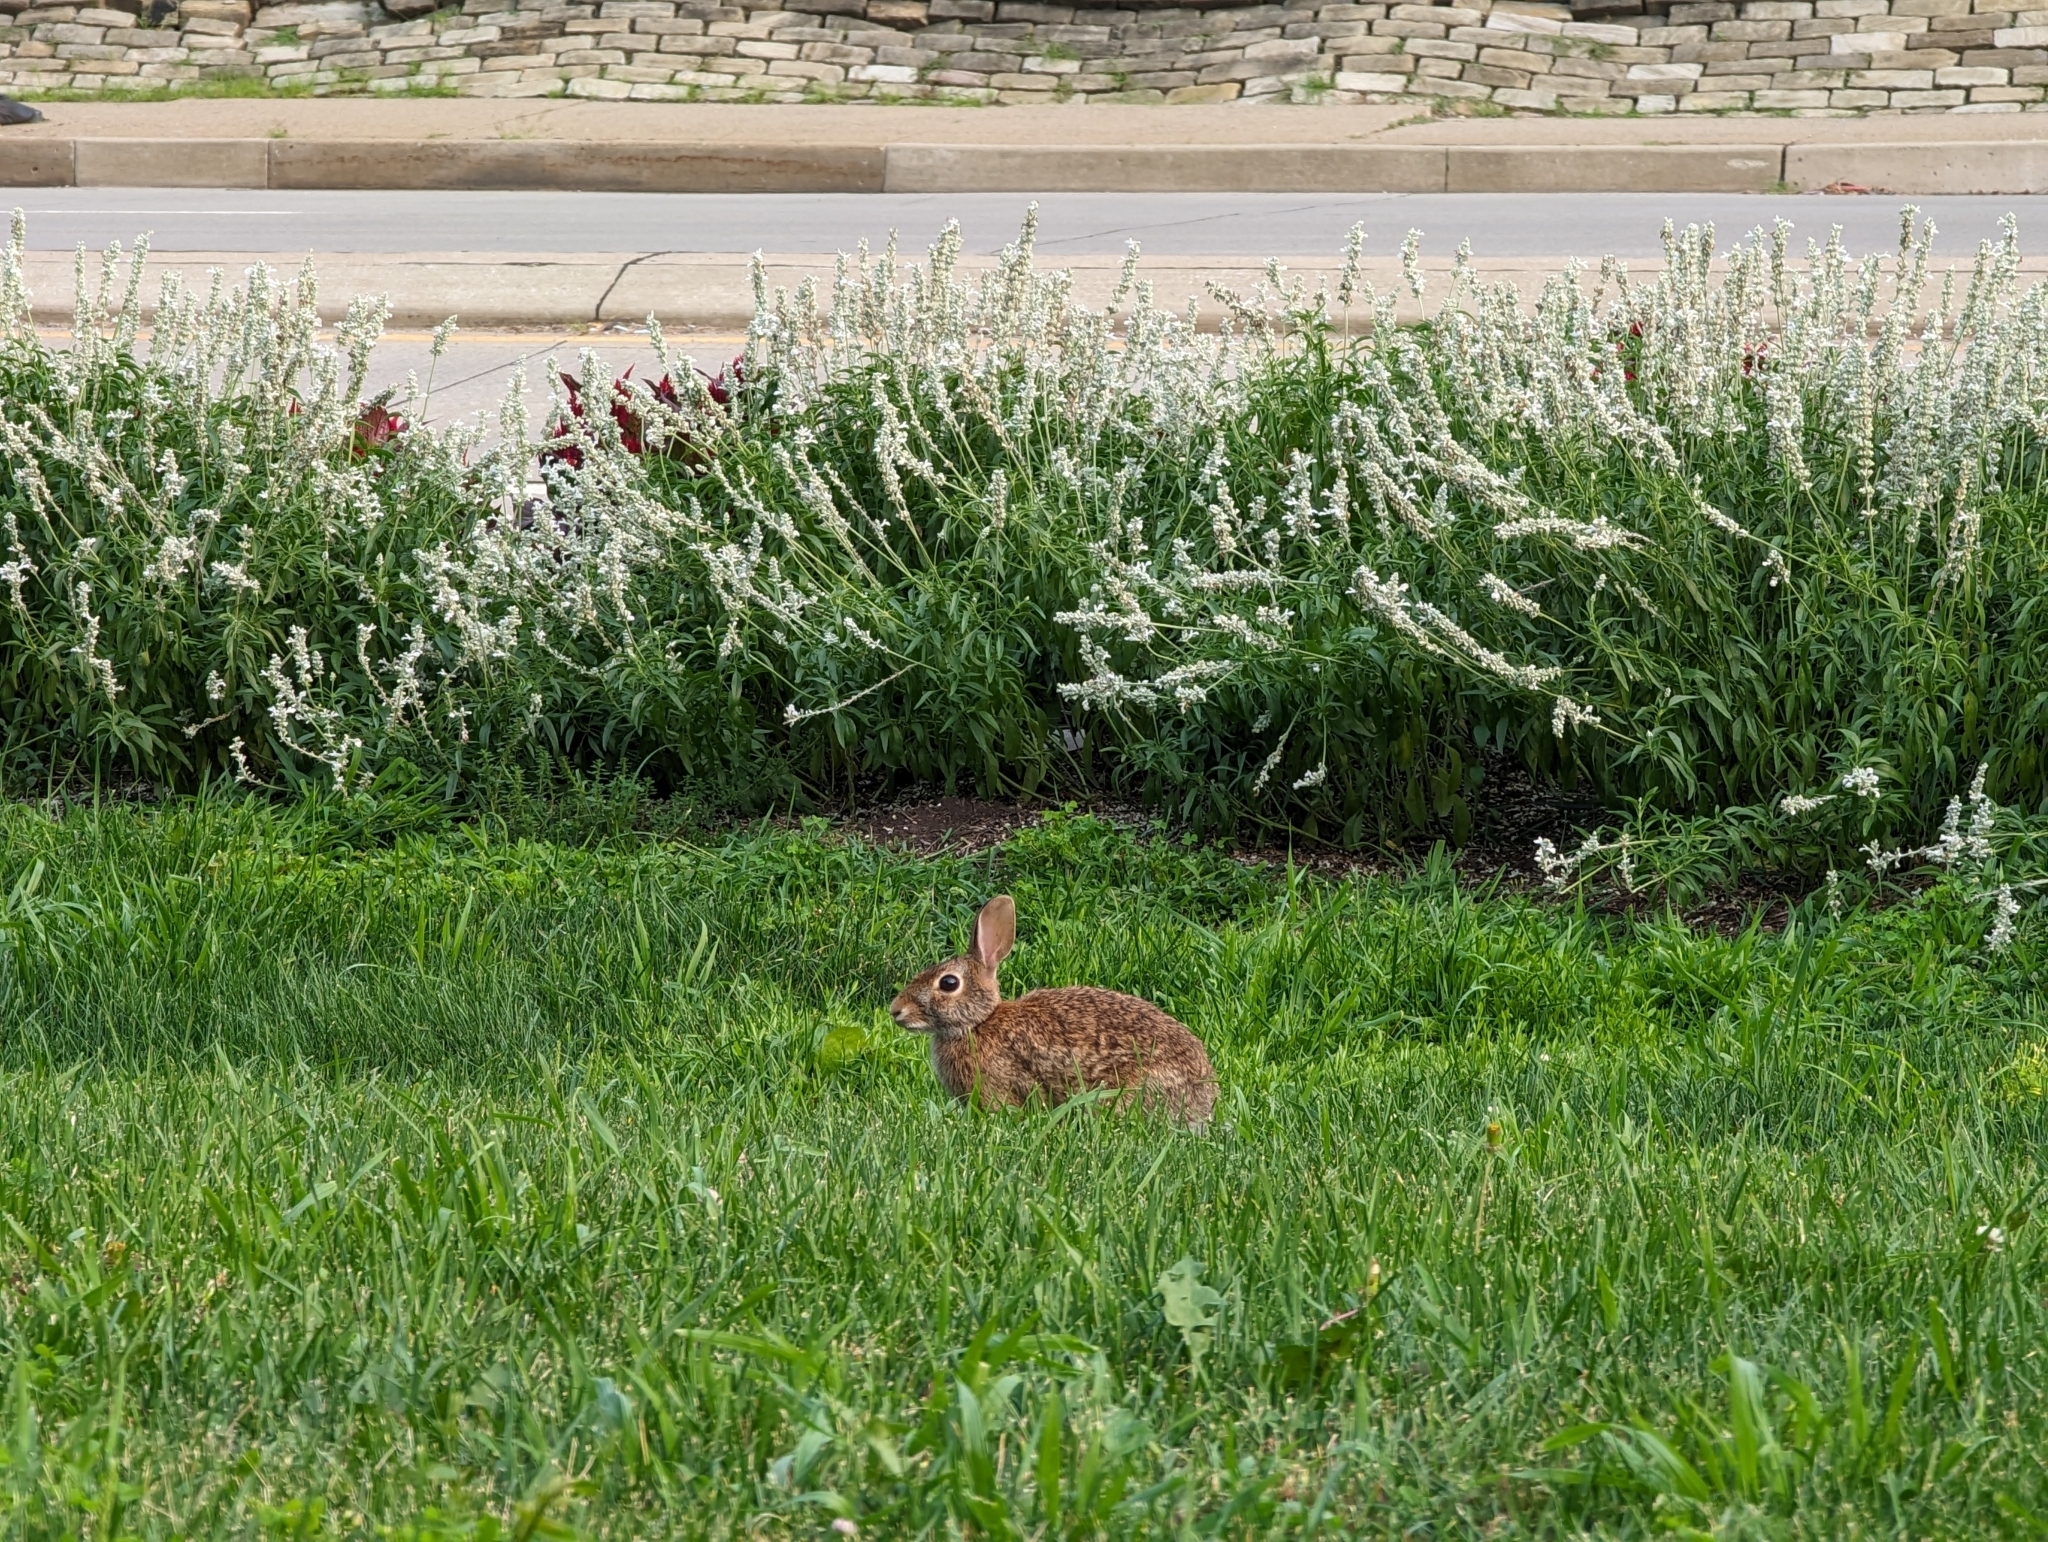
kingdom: Animalia
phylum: Chordata
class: Mammalia
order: Lagomorpha
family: Leporidae
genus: Sylvilagus
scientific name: Sylvilagus floridanus
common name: Eastern cottontail
